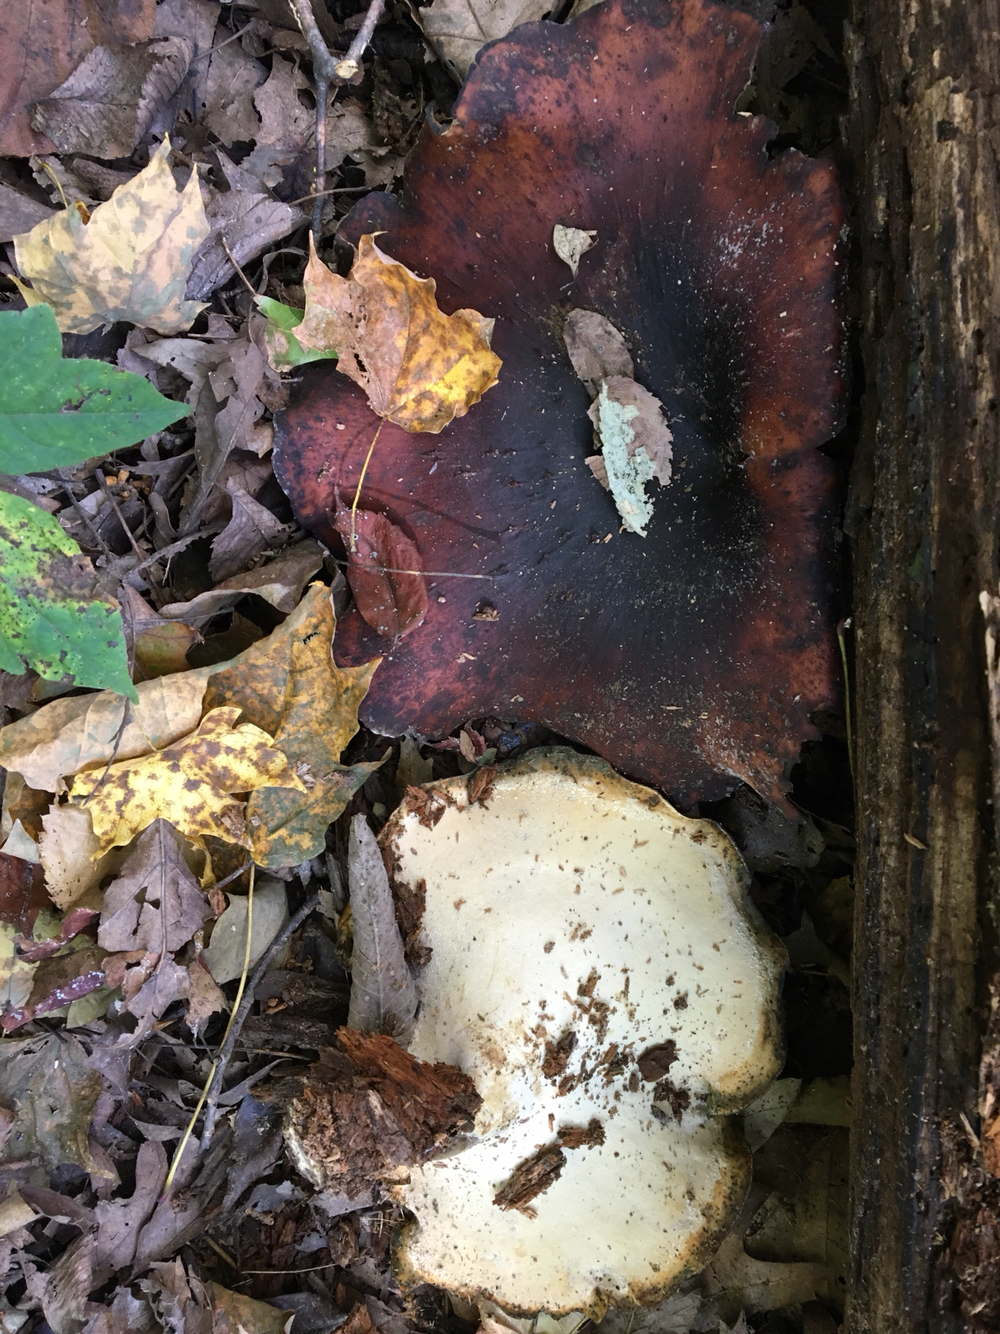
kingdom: Fungi
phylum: Basidiomycota
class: Agaricomycetes
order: Polyporales
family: Polyporaceae
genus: Picipes
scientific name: Picipes badius
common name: Bay polypore
